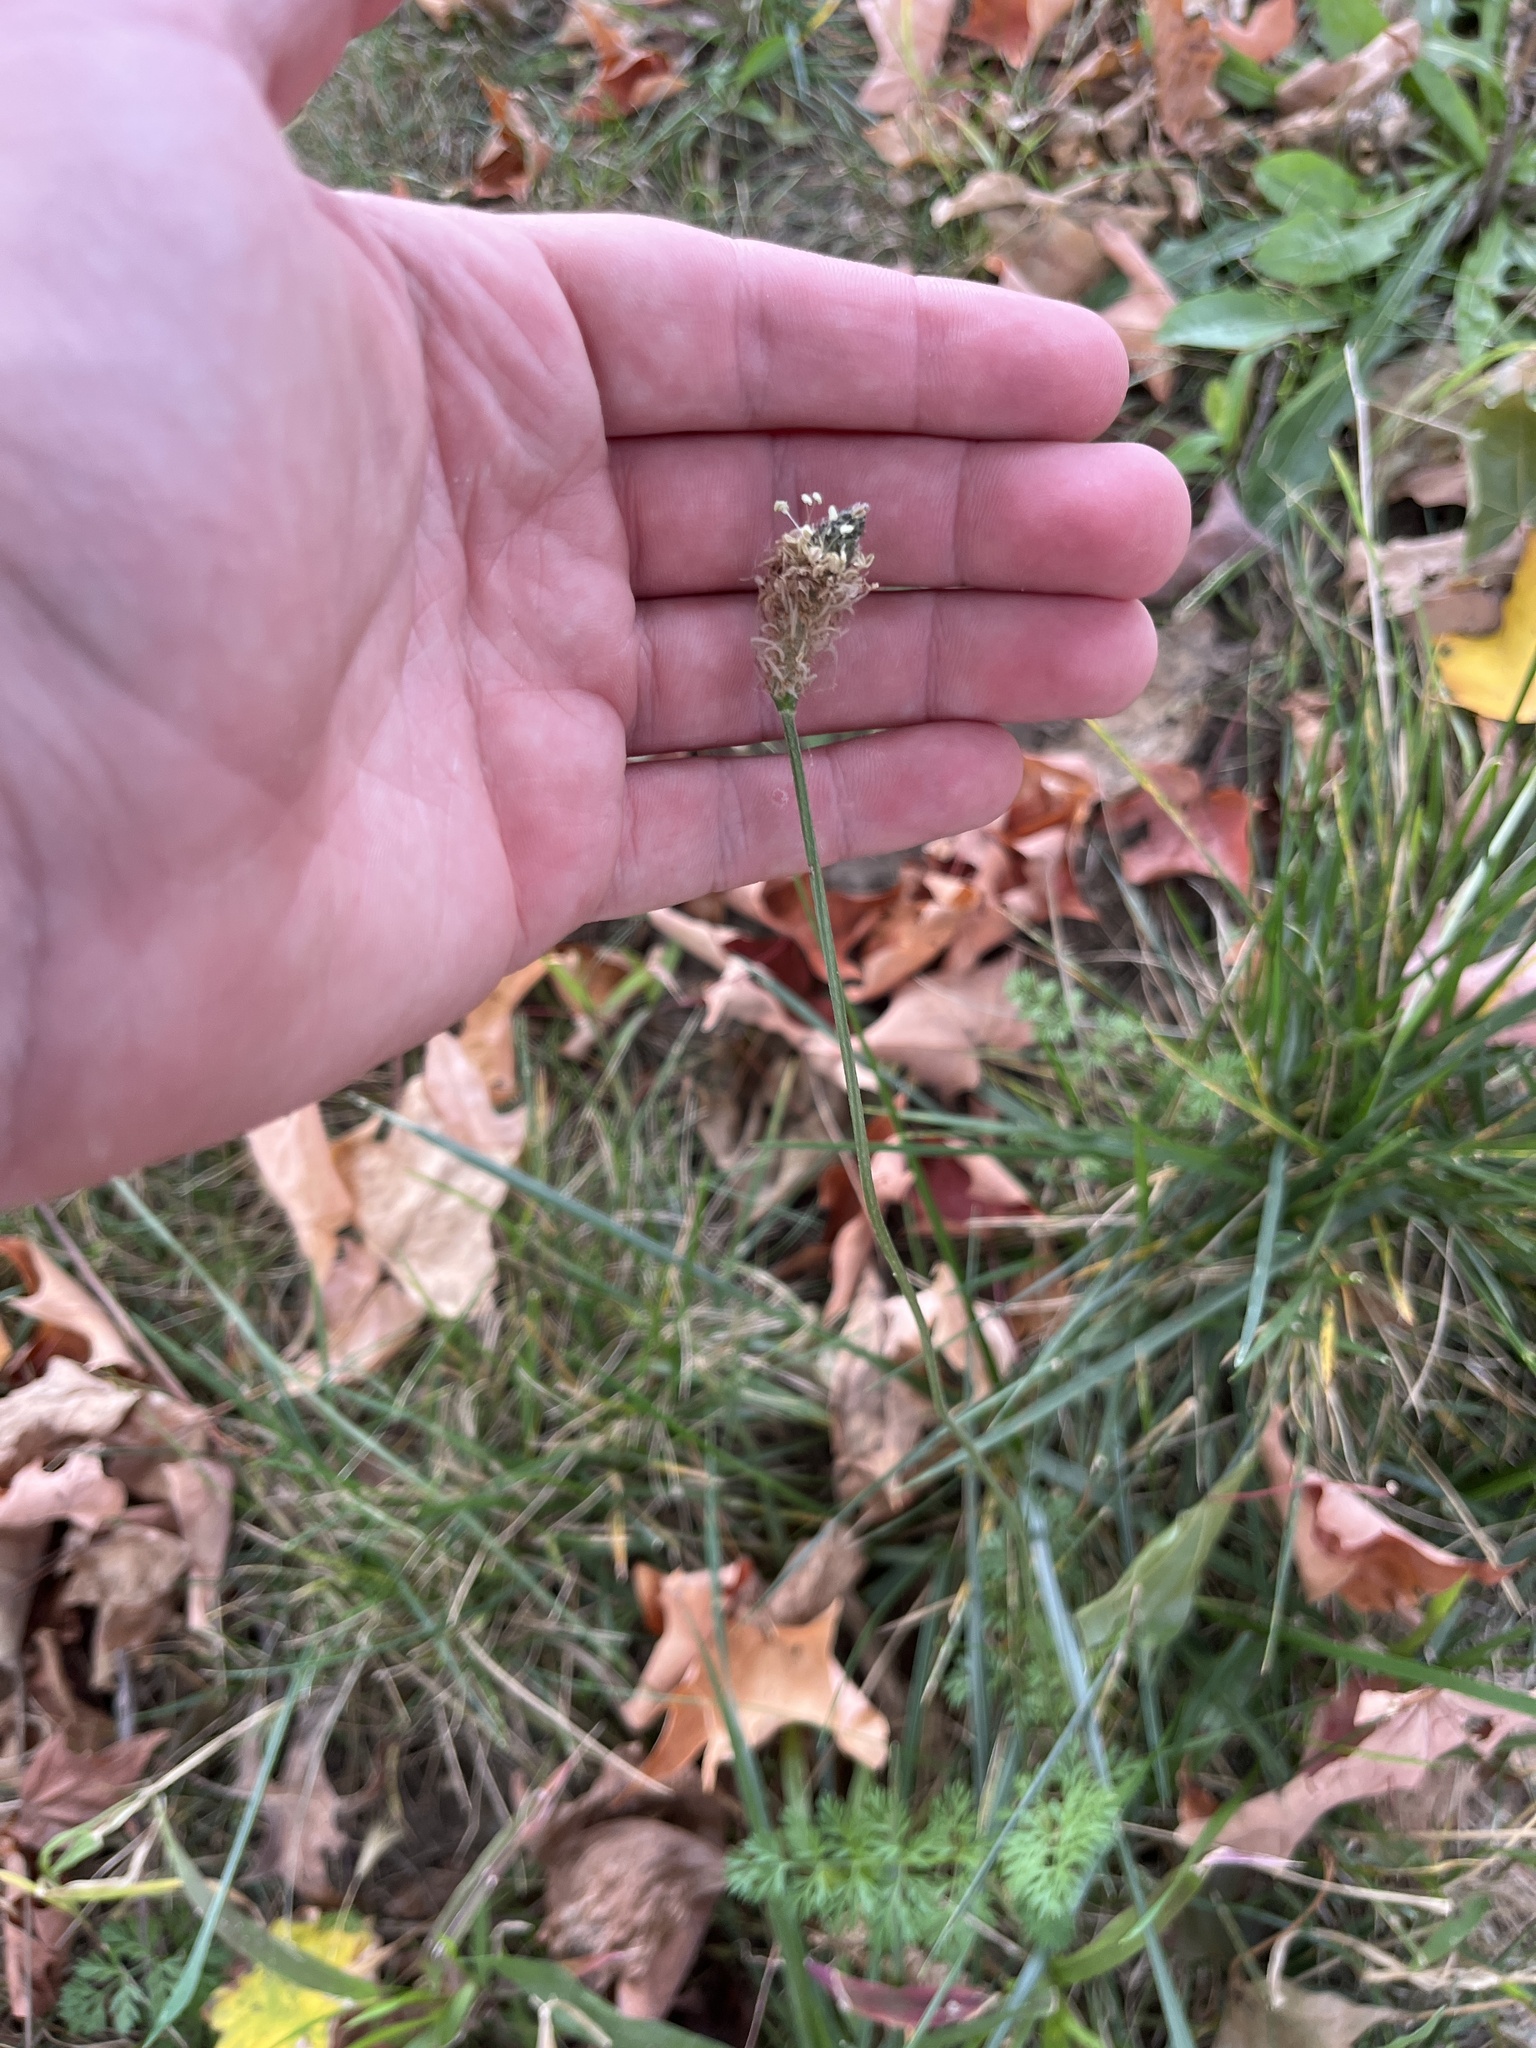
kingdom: Plantae
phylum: Tracheophyta
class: Magnoliopsida
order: Lamiales
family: Plantaginaceae
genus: Plantago
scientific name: Plantago lanceolata
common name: Ribwort plantain
